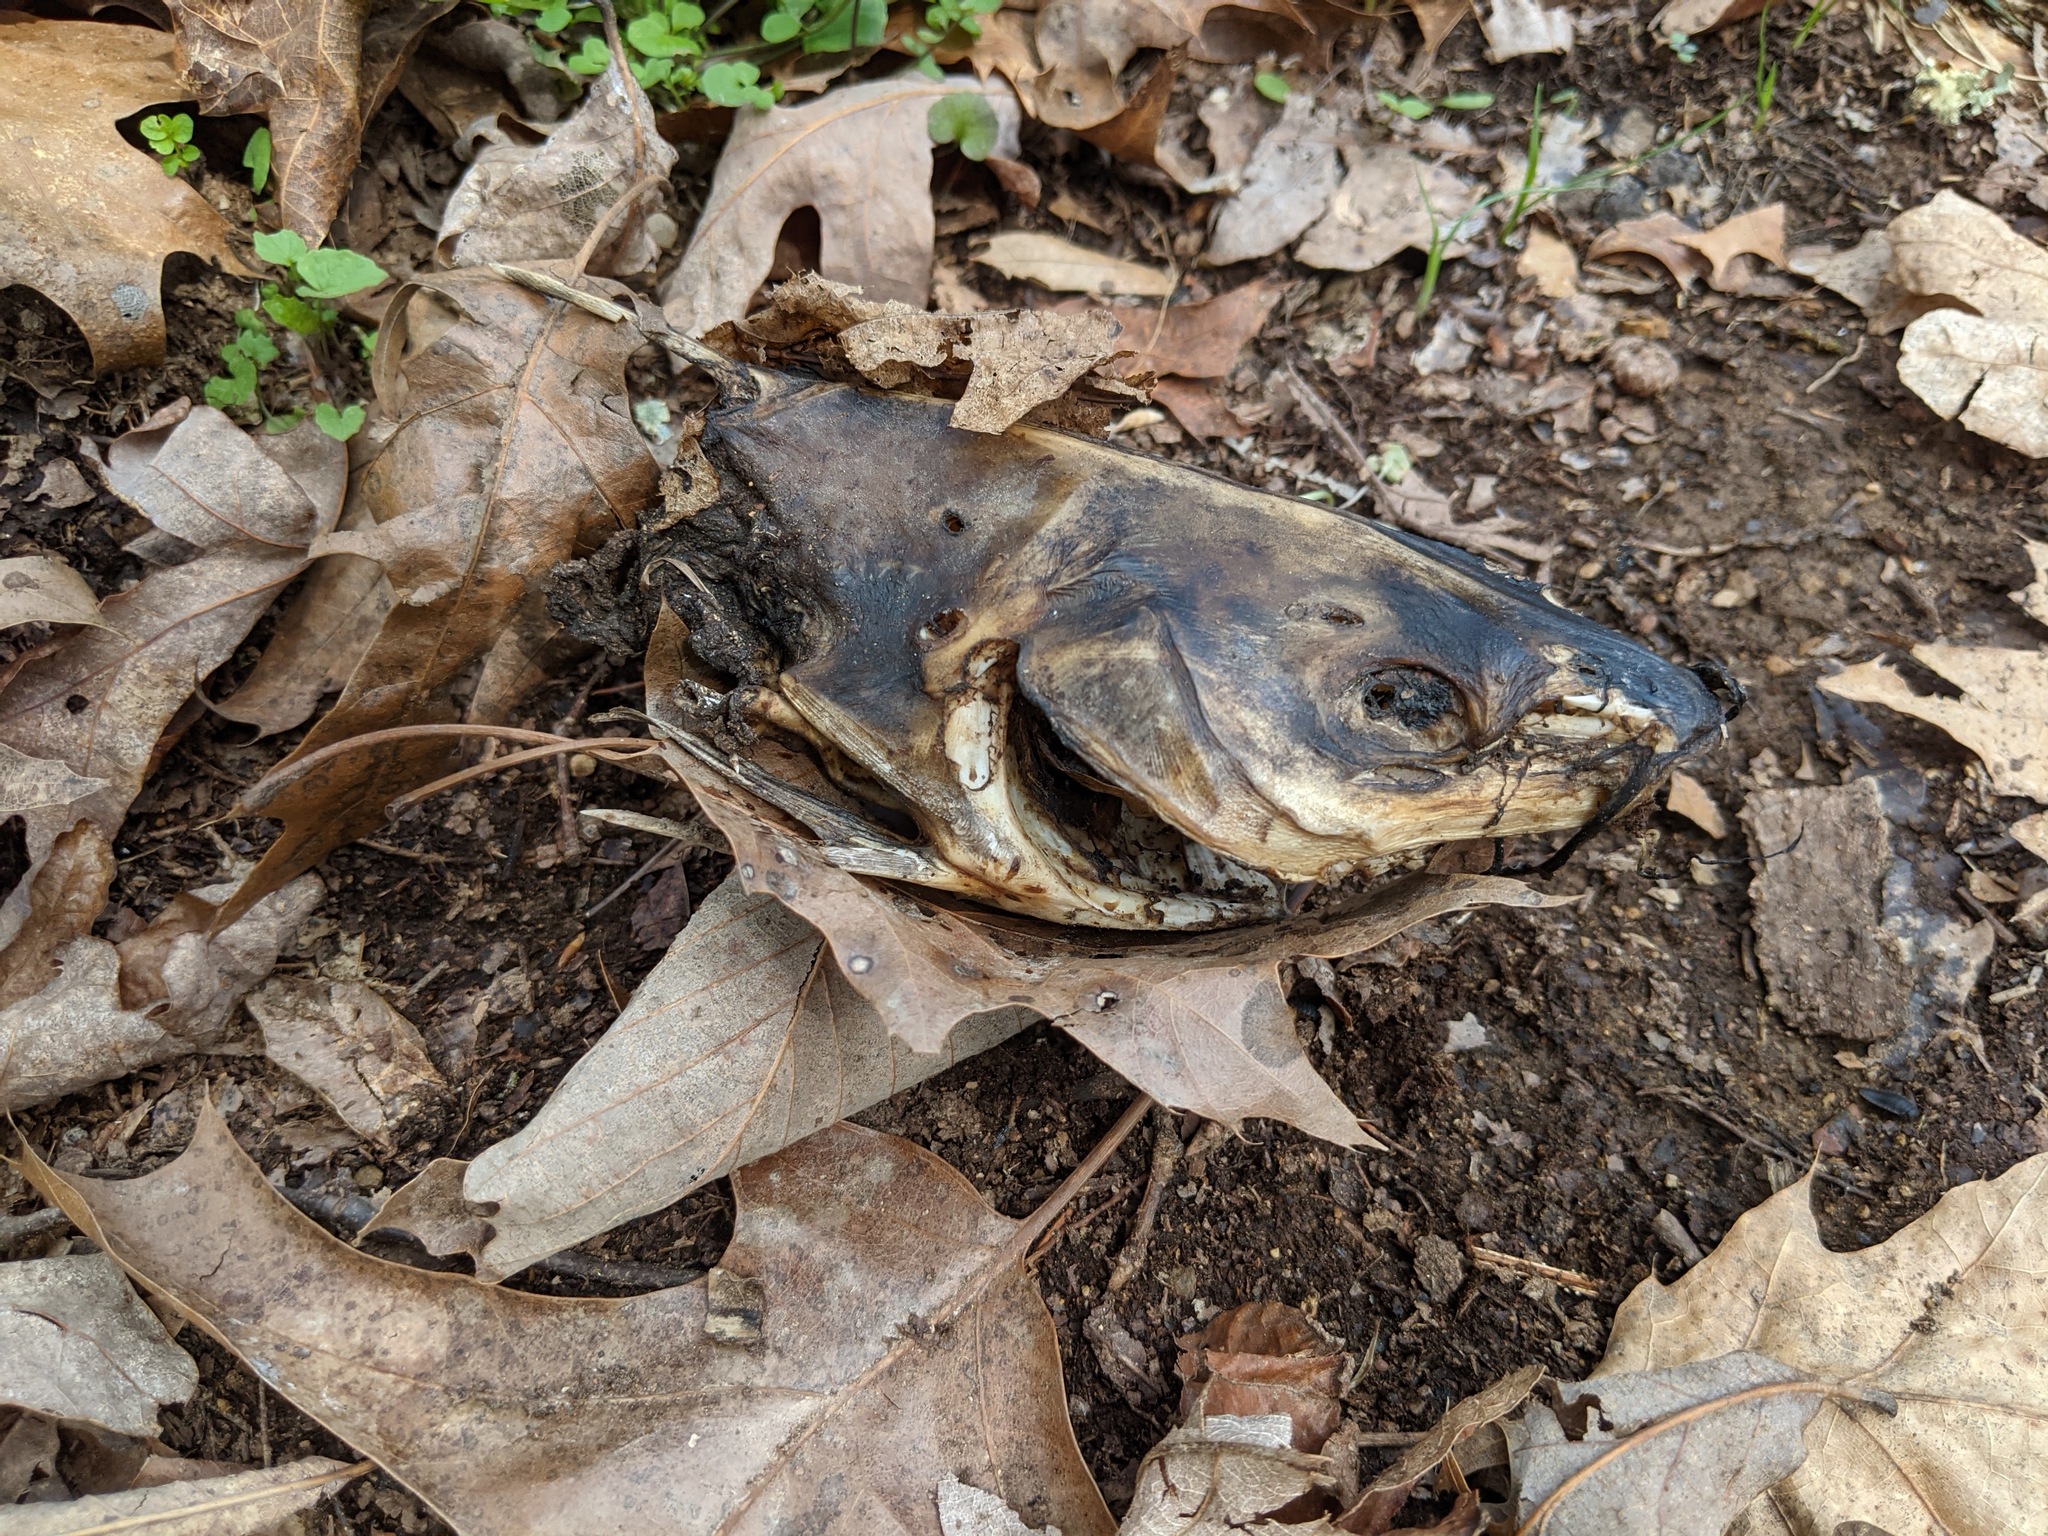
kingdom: Animalia
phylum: Chordata
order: Siluriformes
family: Ictaluridae
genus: Ictalurus
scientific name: Ictalurus punctatus
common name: Channel catfish
